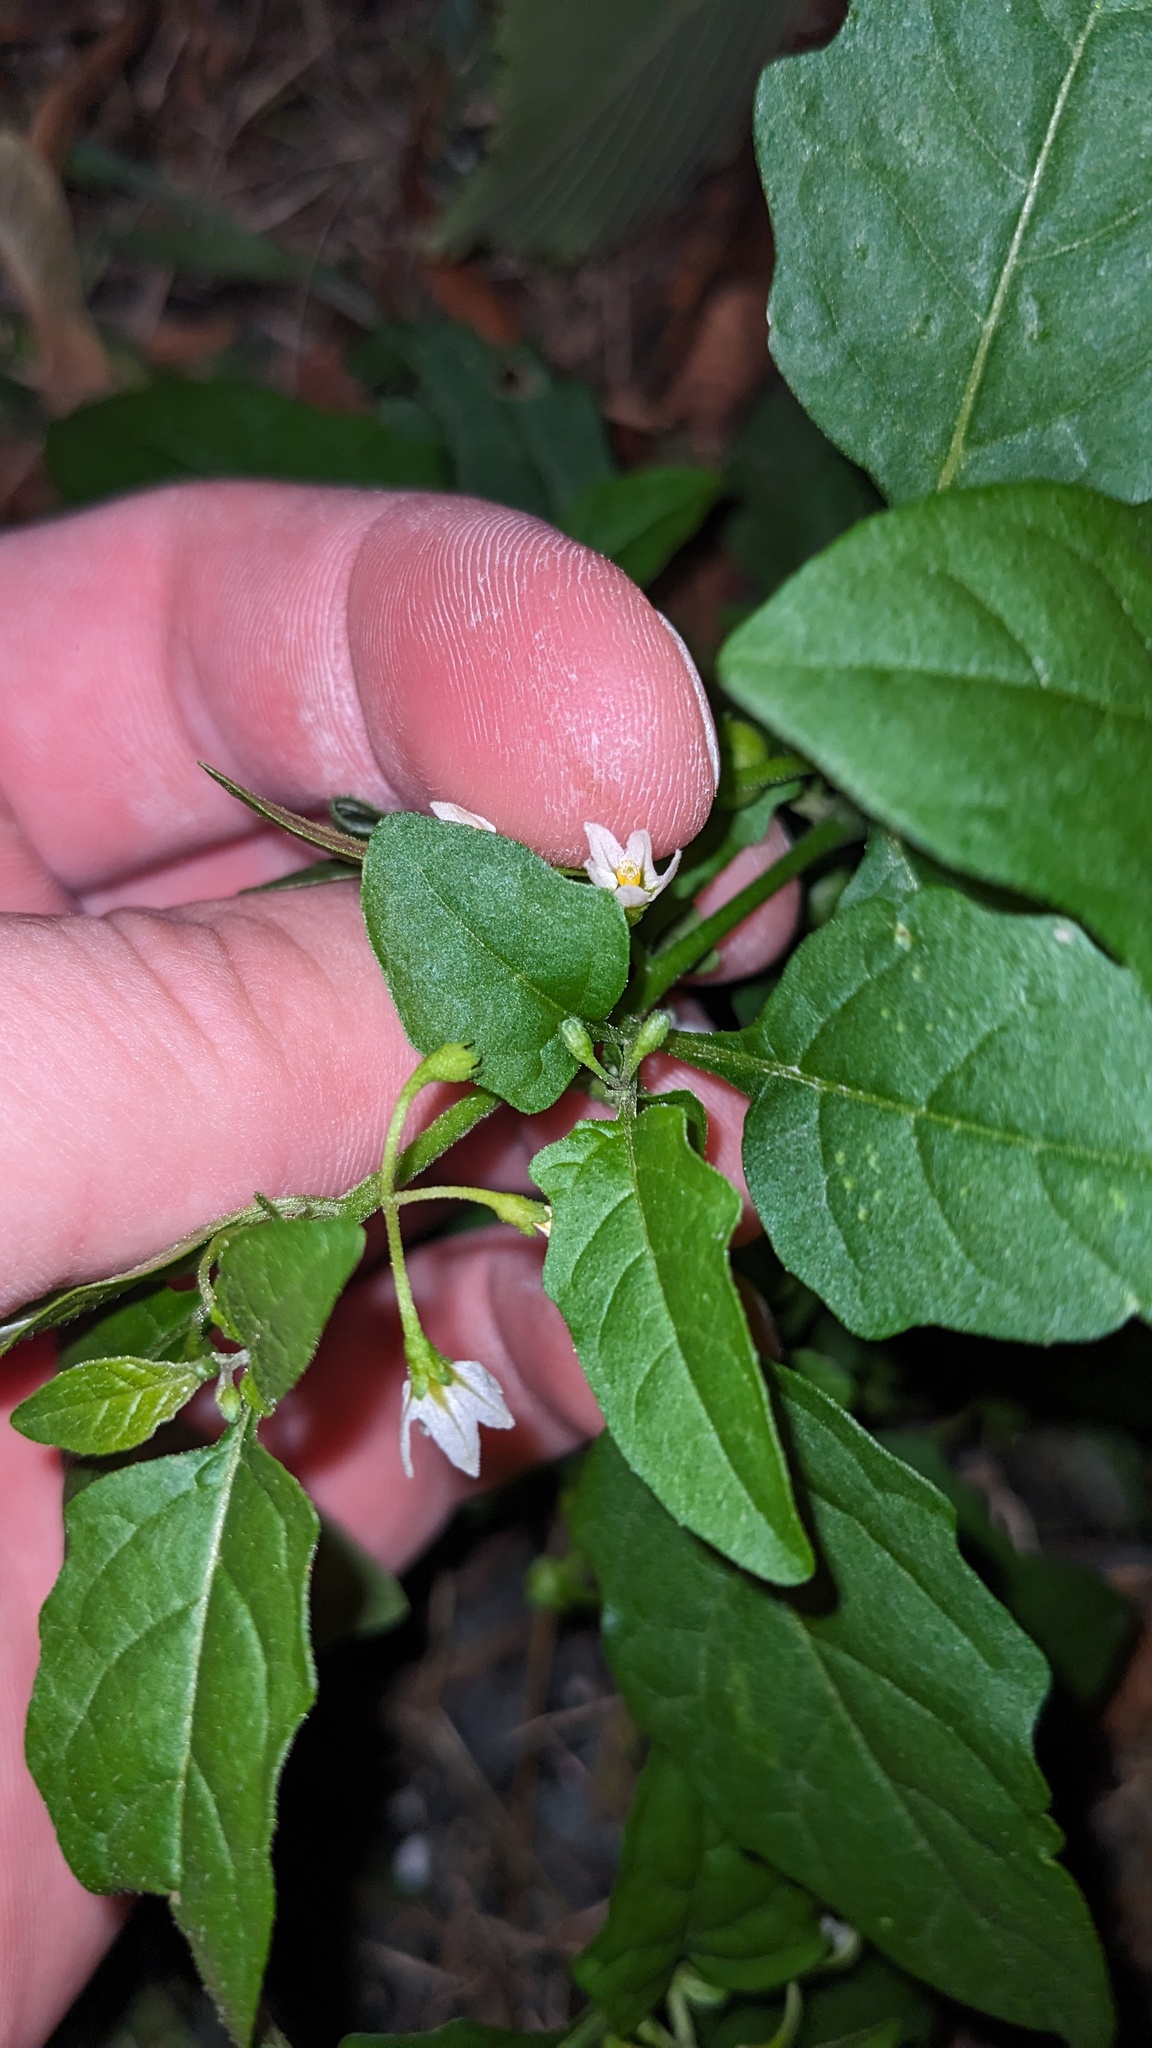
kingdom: Plantae
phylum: Tracheophyta
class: Magnoliopsida
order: Solanales
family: Solanaceae
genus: Solanum
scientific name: Solanum emulans
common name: Eastern black nightshade
